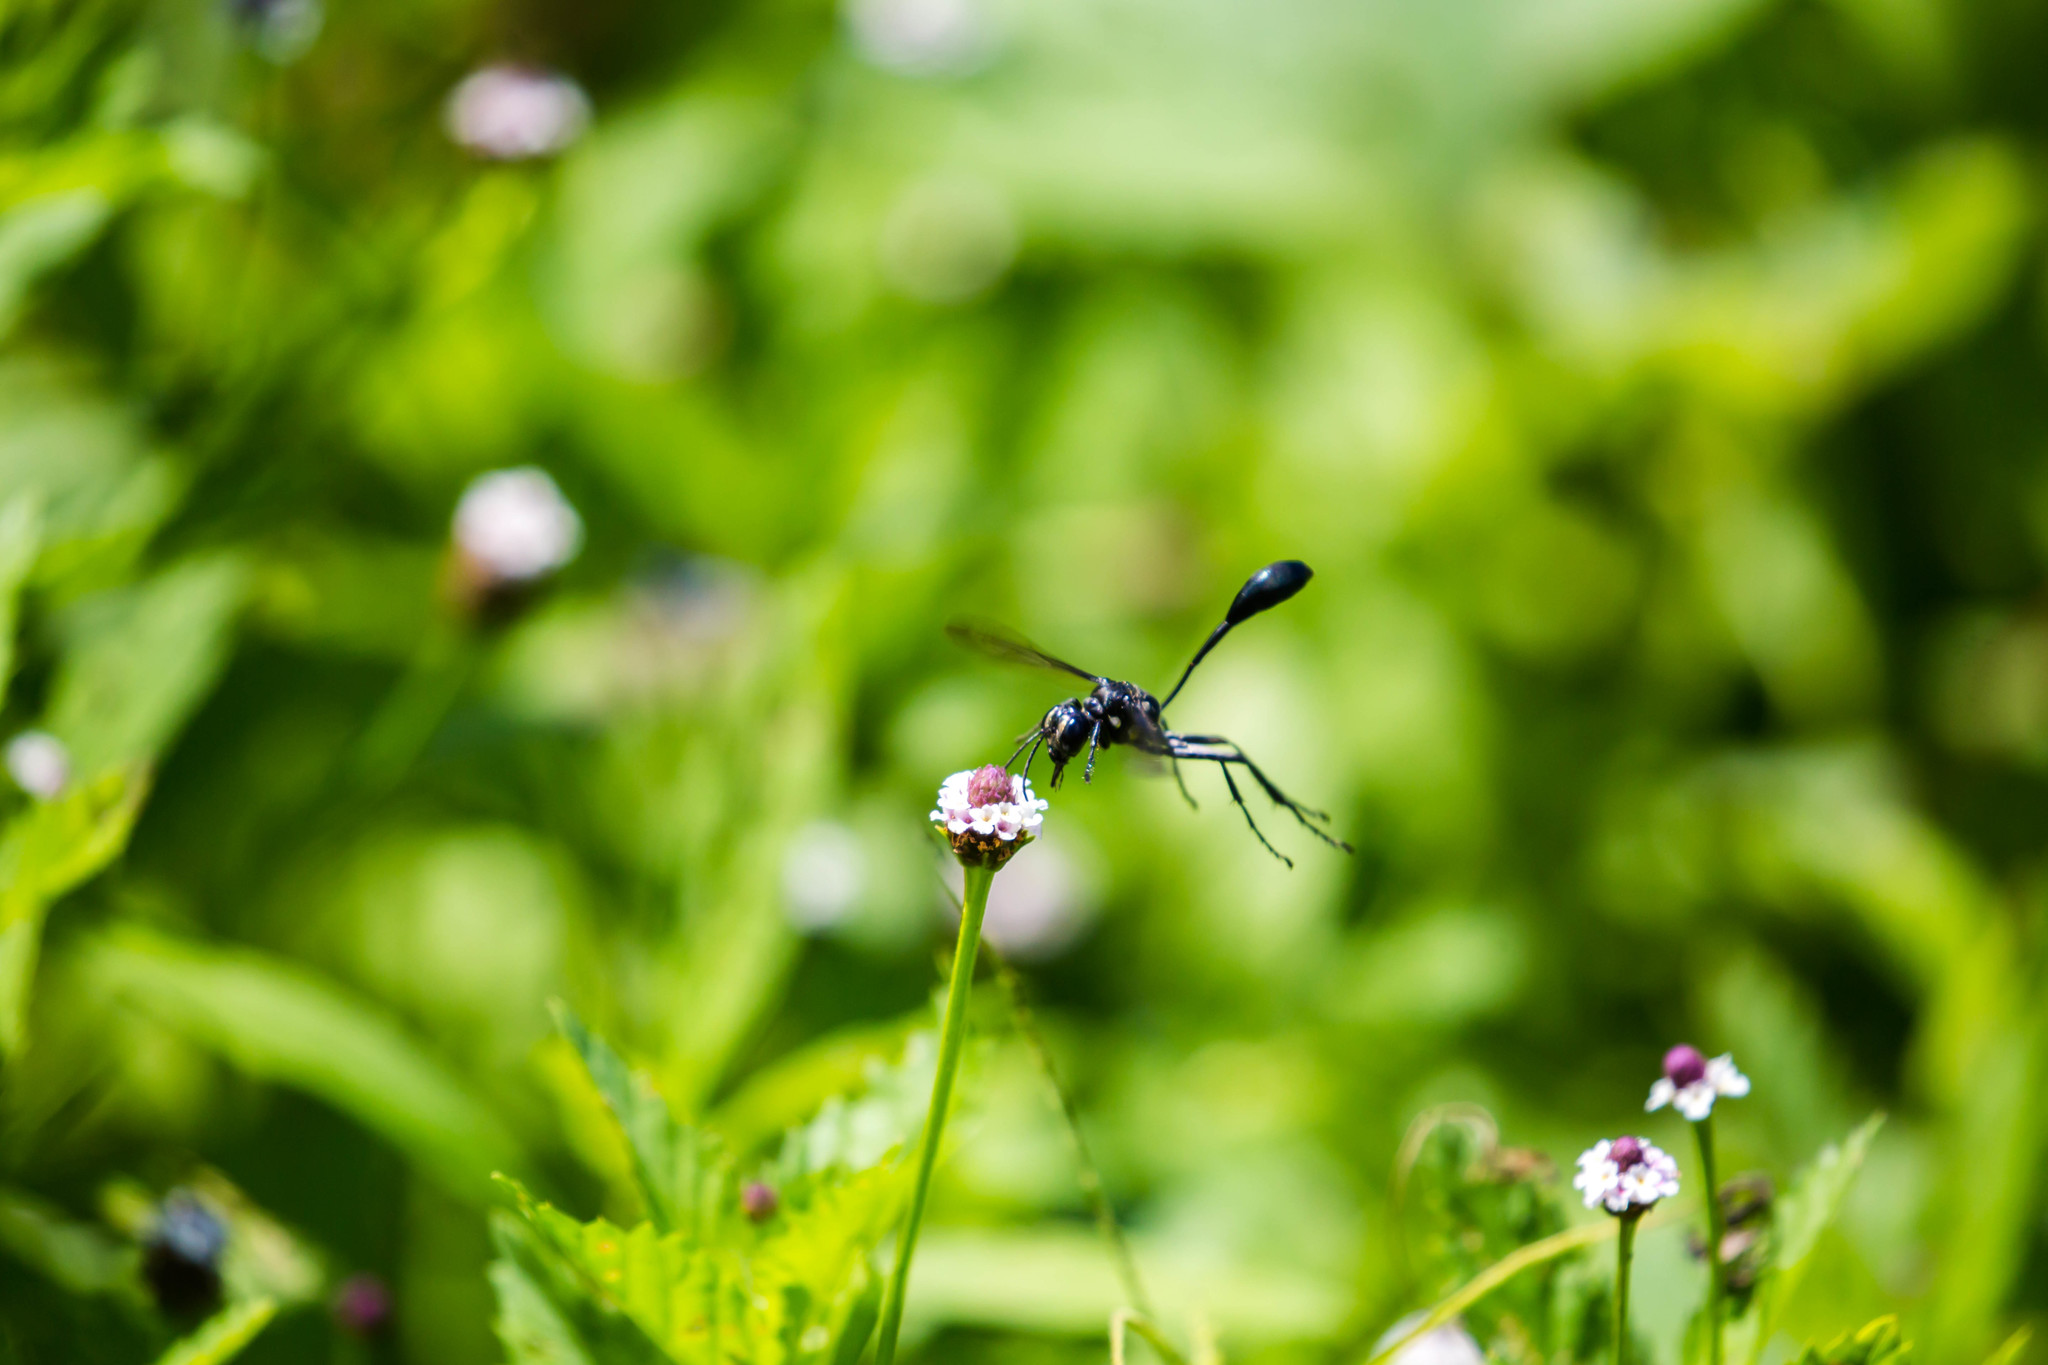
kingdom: Animalia
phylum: Arthropoda
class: Insecta
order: Hymenoptera
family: Sphecidae
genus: Eremnophila
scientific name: Eremnophila aureonotata
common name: Gold-marked thread-waisted wasp
